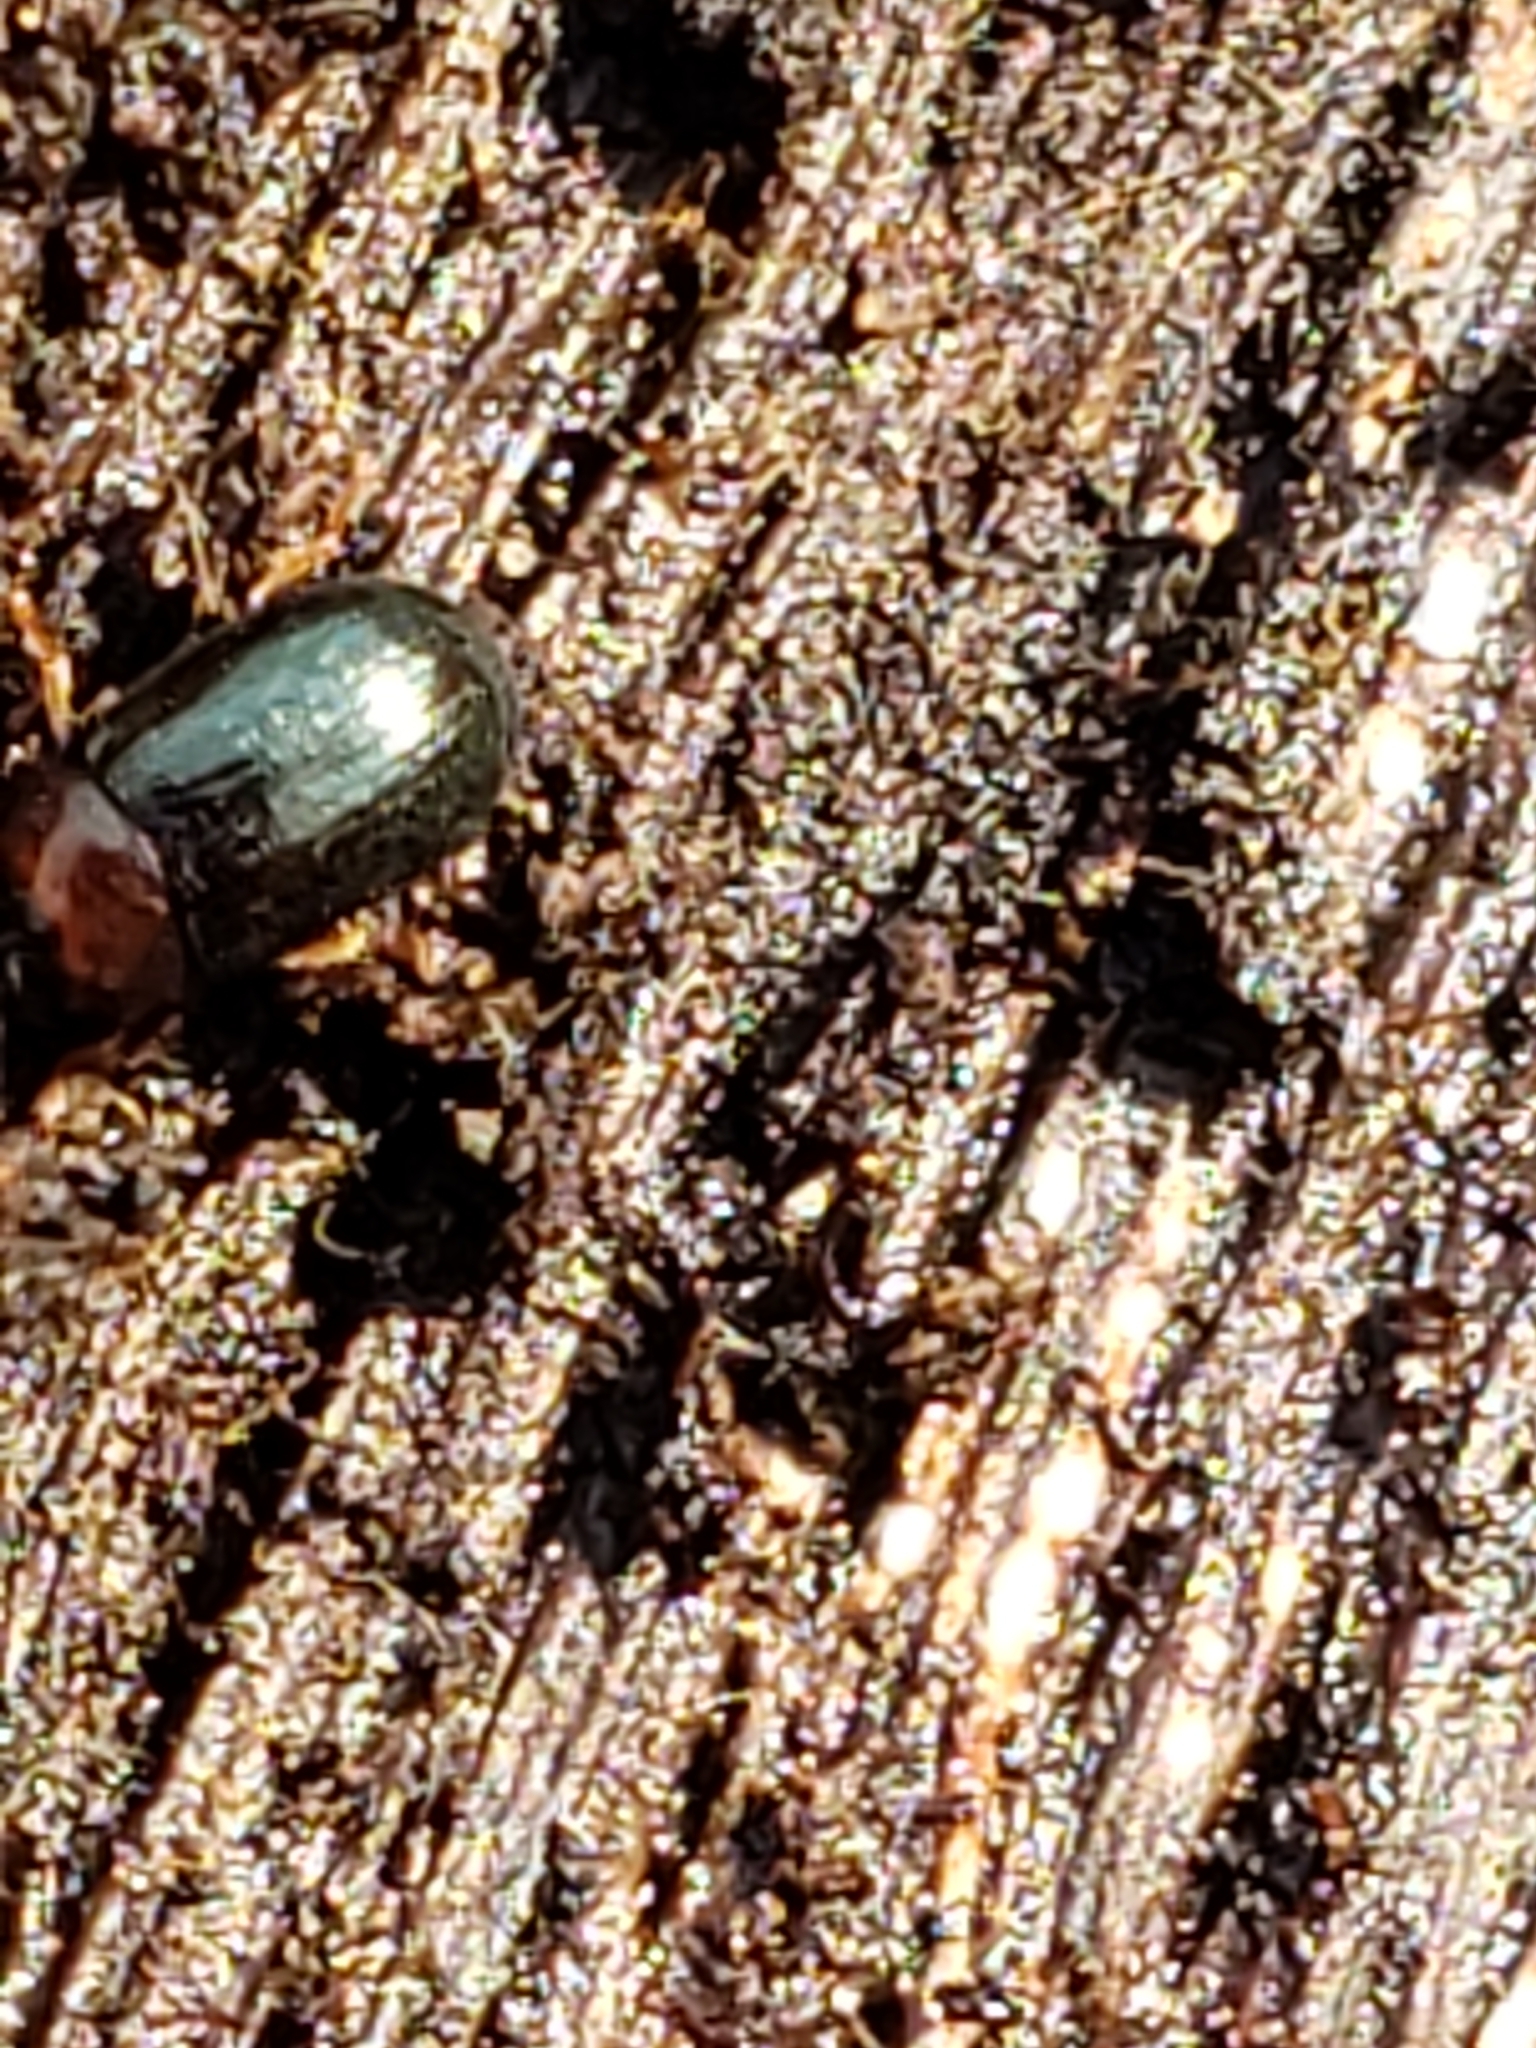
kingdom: Animalia
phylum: Arthropoda
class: Insecta
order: Coleoptera
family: Tenebrionidae
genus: Neomida
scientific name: Neomida bicornis
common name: Two-horned darkling beetle
